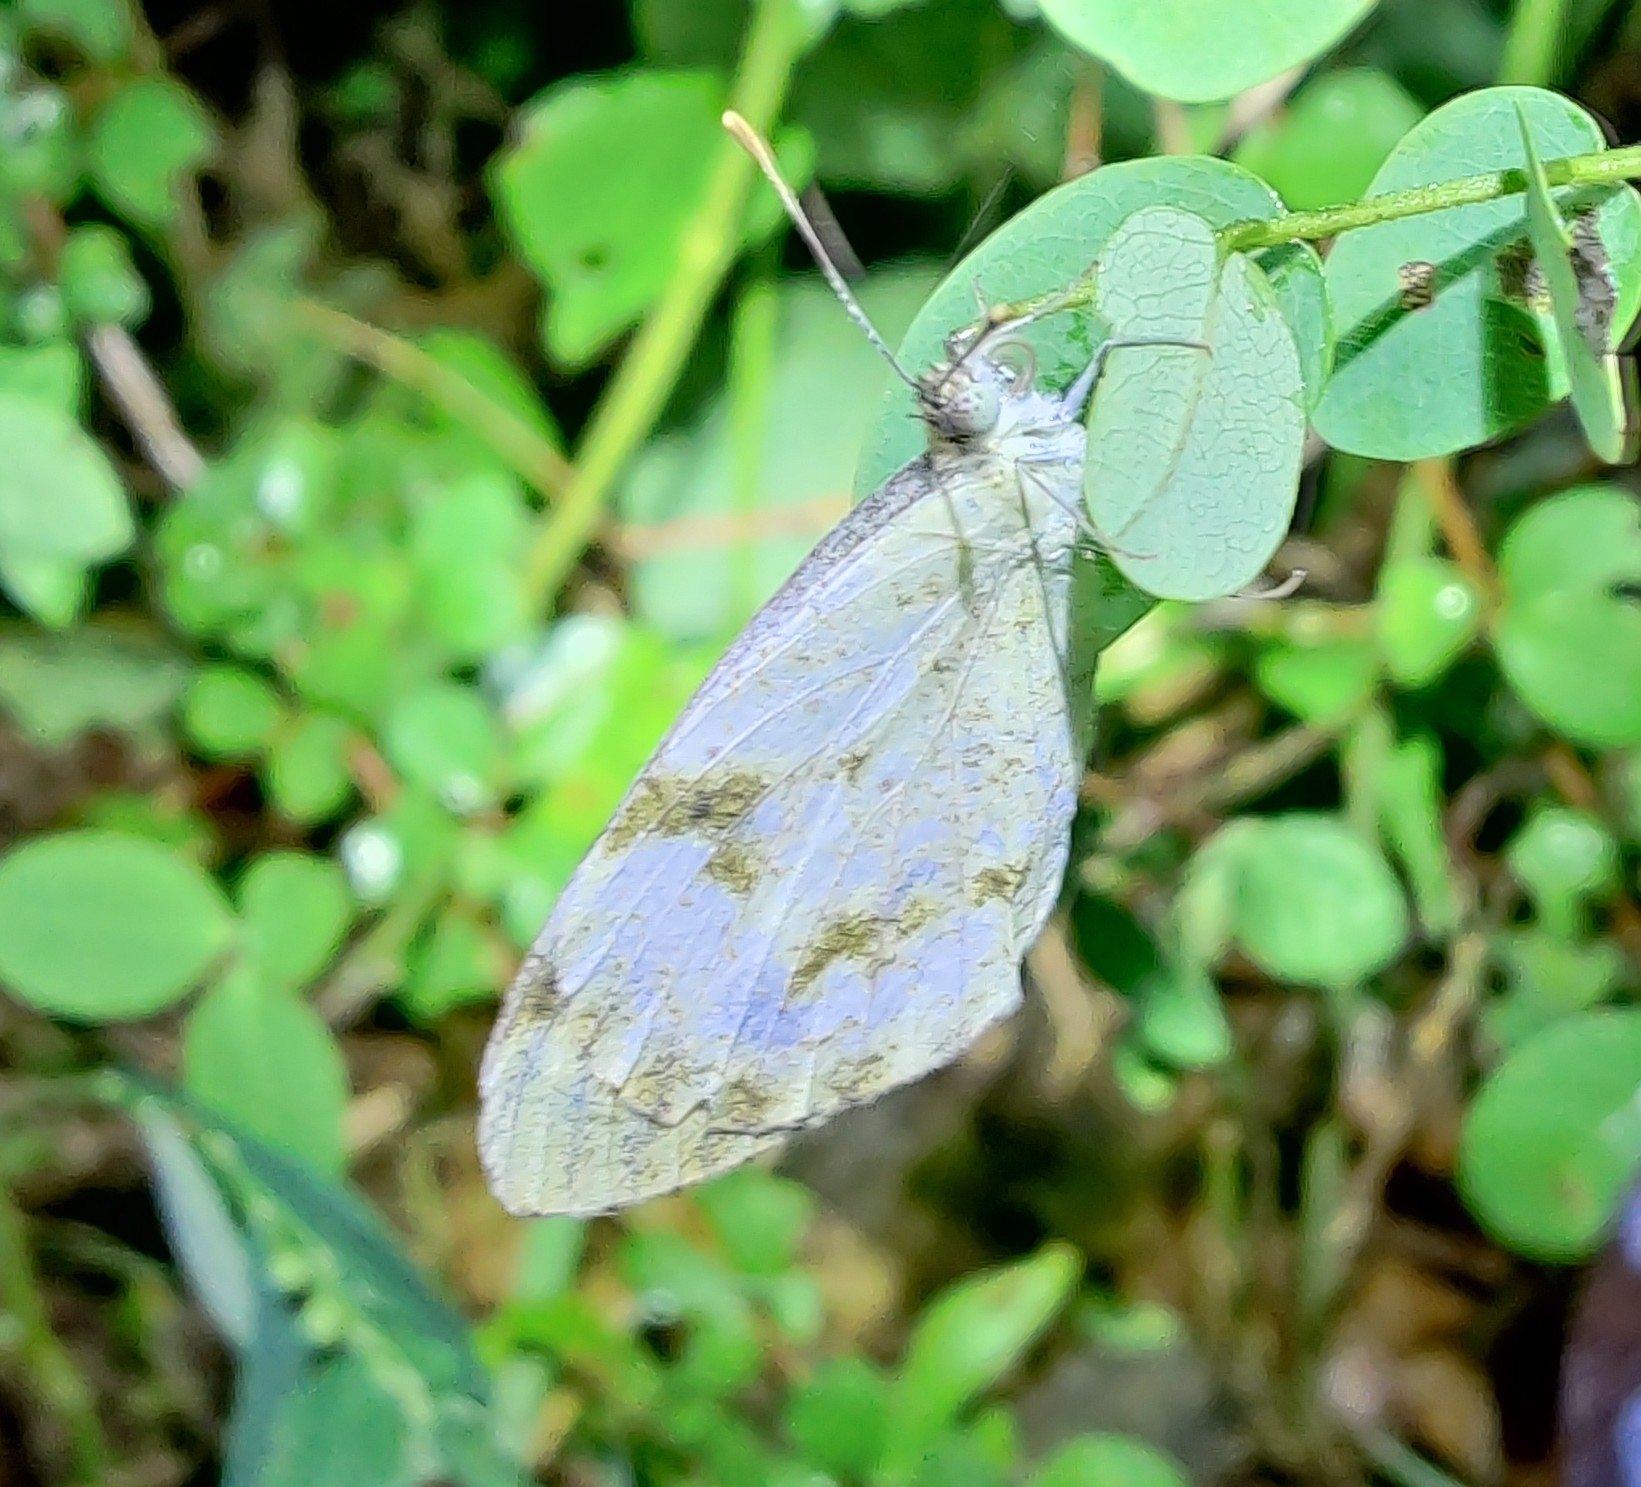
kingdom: Animalia
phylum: Arthropoda
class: Insecta
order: Lepidoptera
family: Pieridae
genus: Colotis
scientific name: Colotis etrida
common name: Little orange tip
